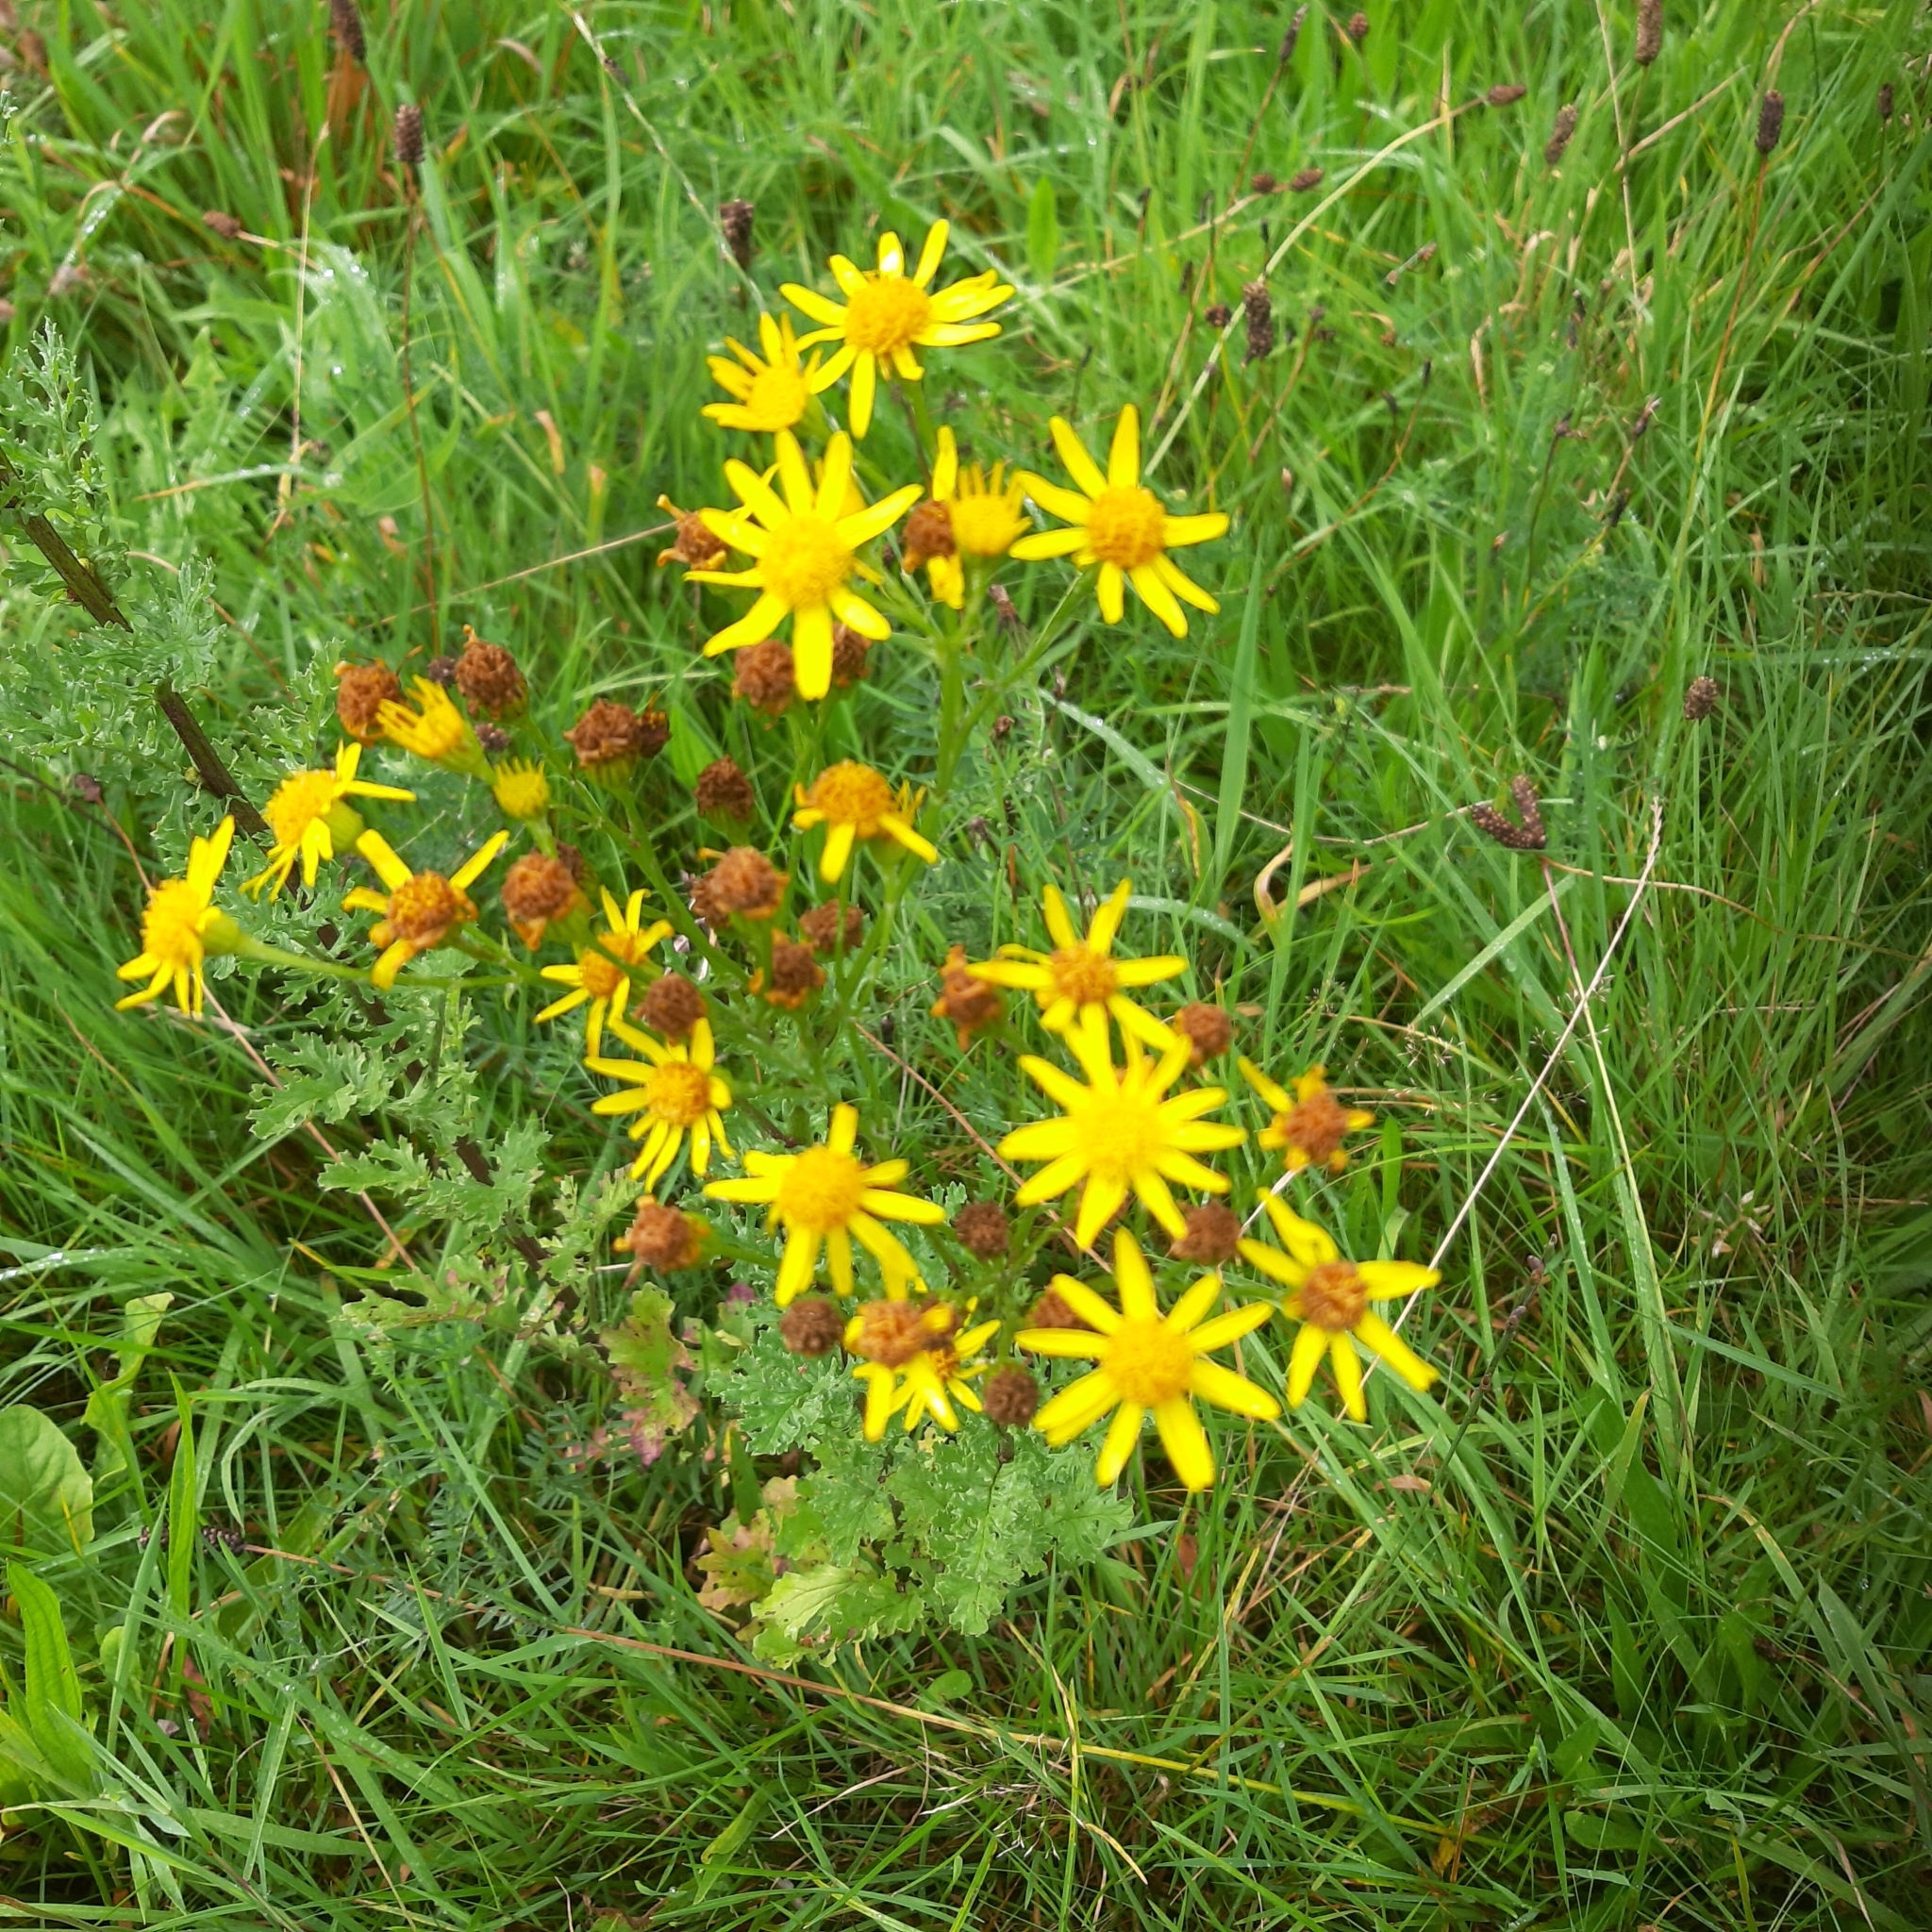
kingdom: Plantae
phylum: Tracheophyta
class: Magnoliopsida
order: Asterales
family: Asteraceae
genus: Jacobaea
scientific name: Jacobaea vulgaris
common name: Stinking willie
